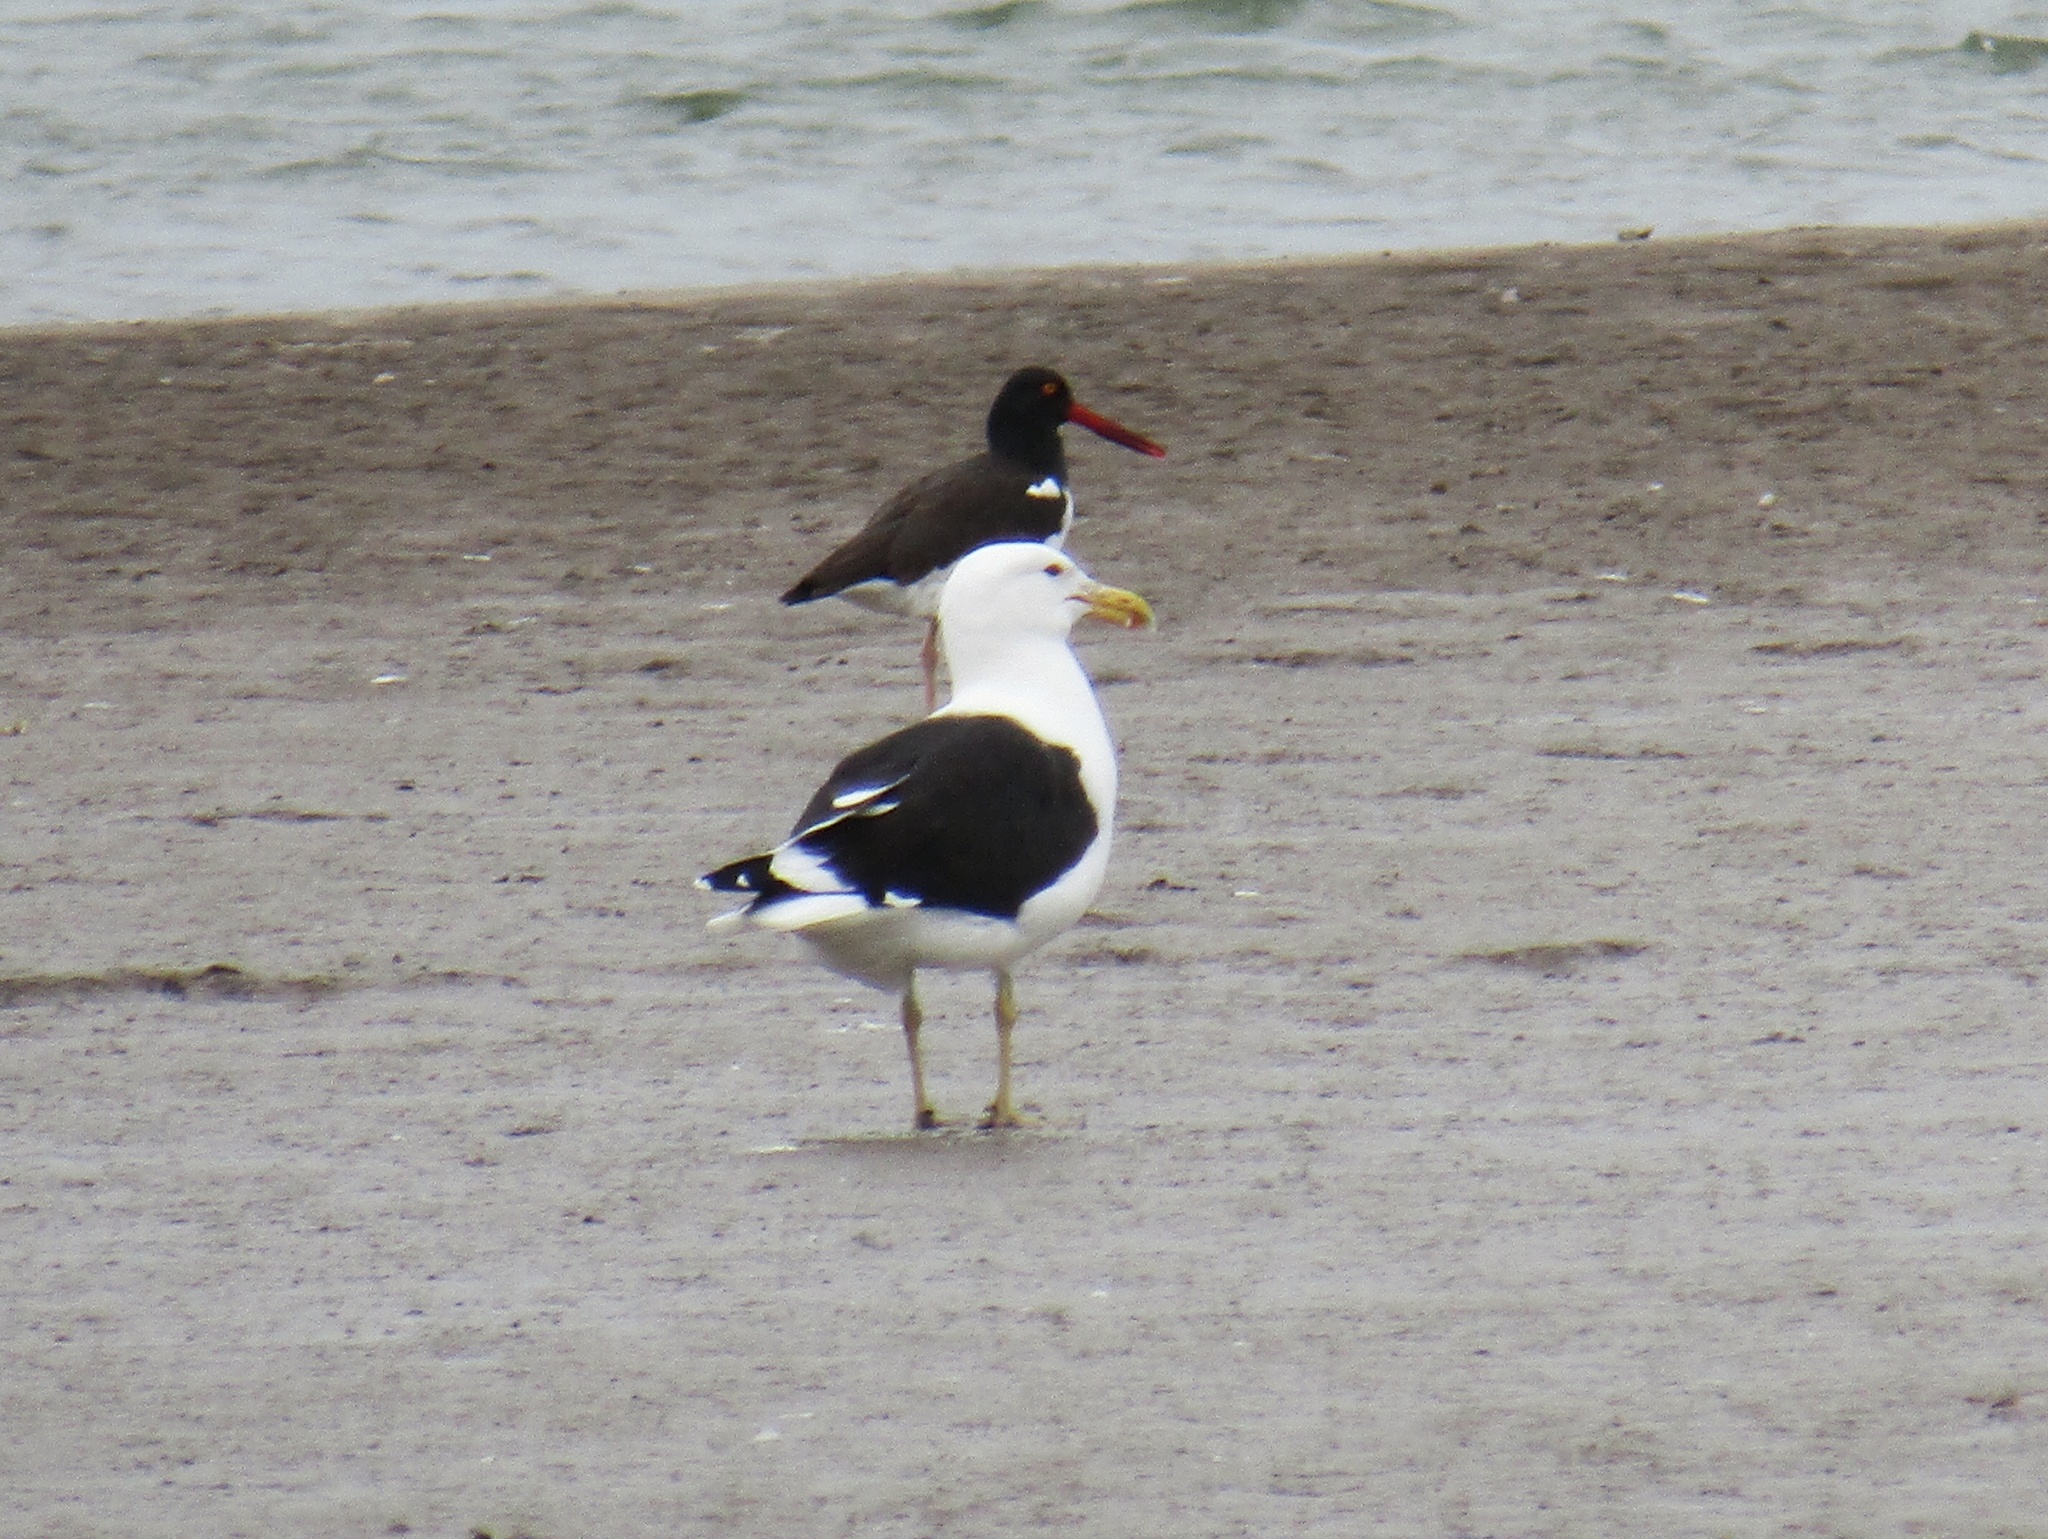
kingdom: Animalia
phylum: Chordata
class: Aves
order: Charadriiformes
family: Laridae
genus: Larus
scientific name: Larus dominicanus
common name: Kelp gull
